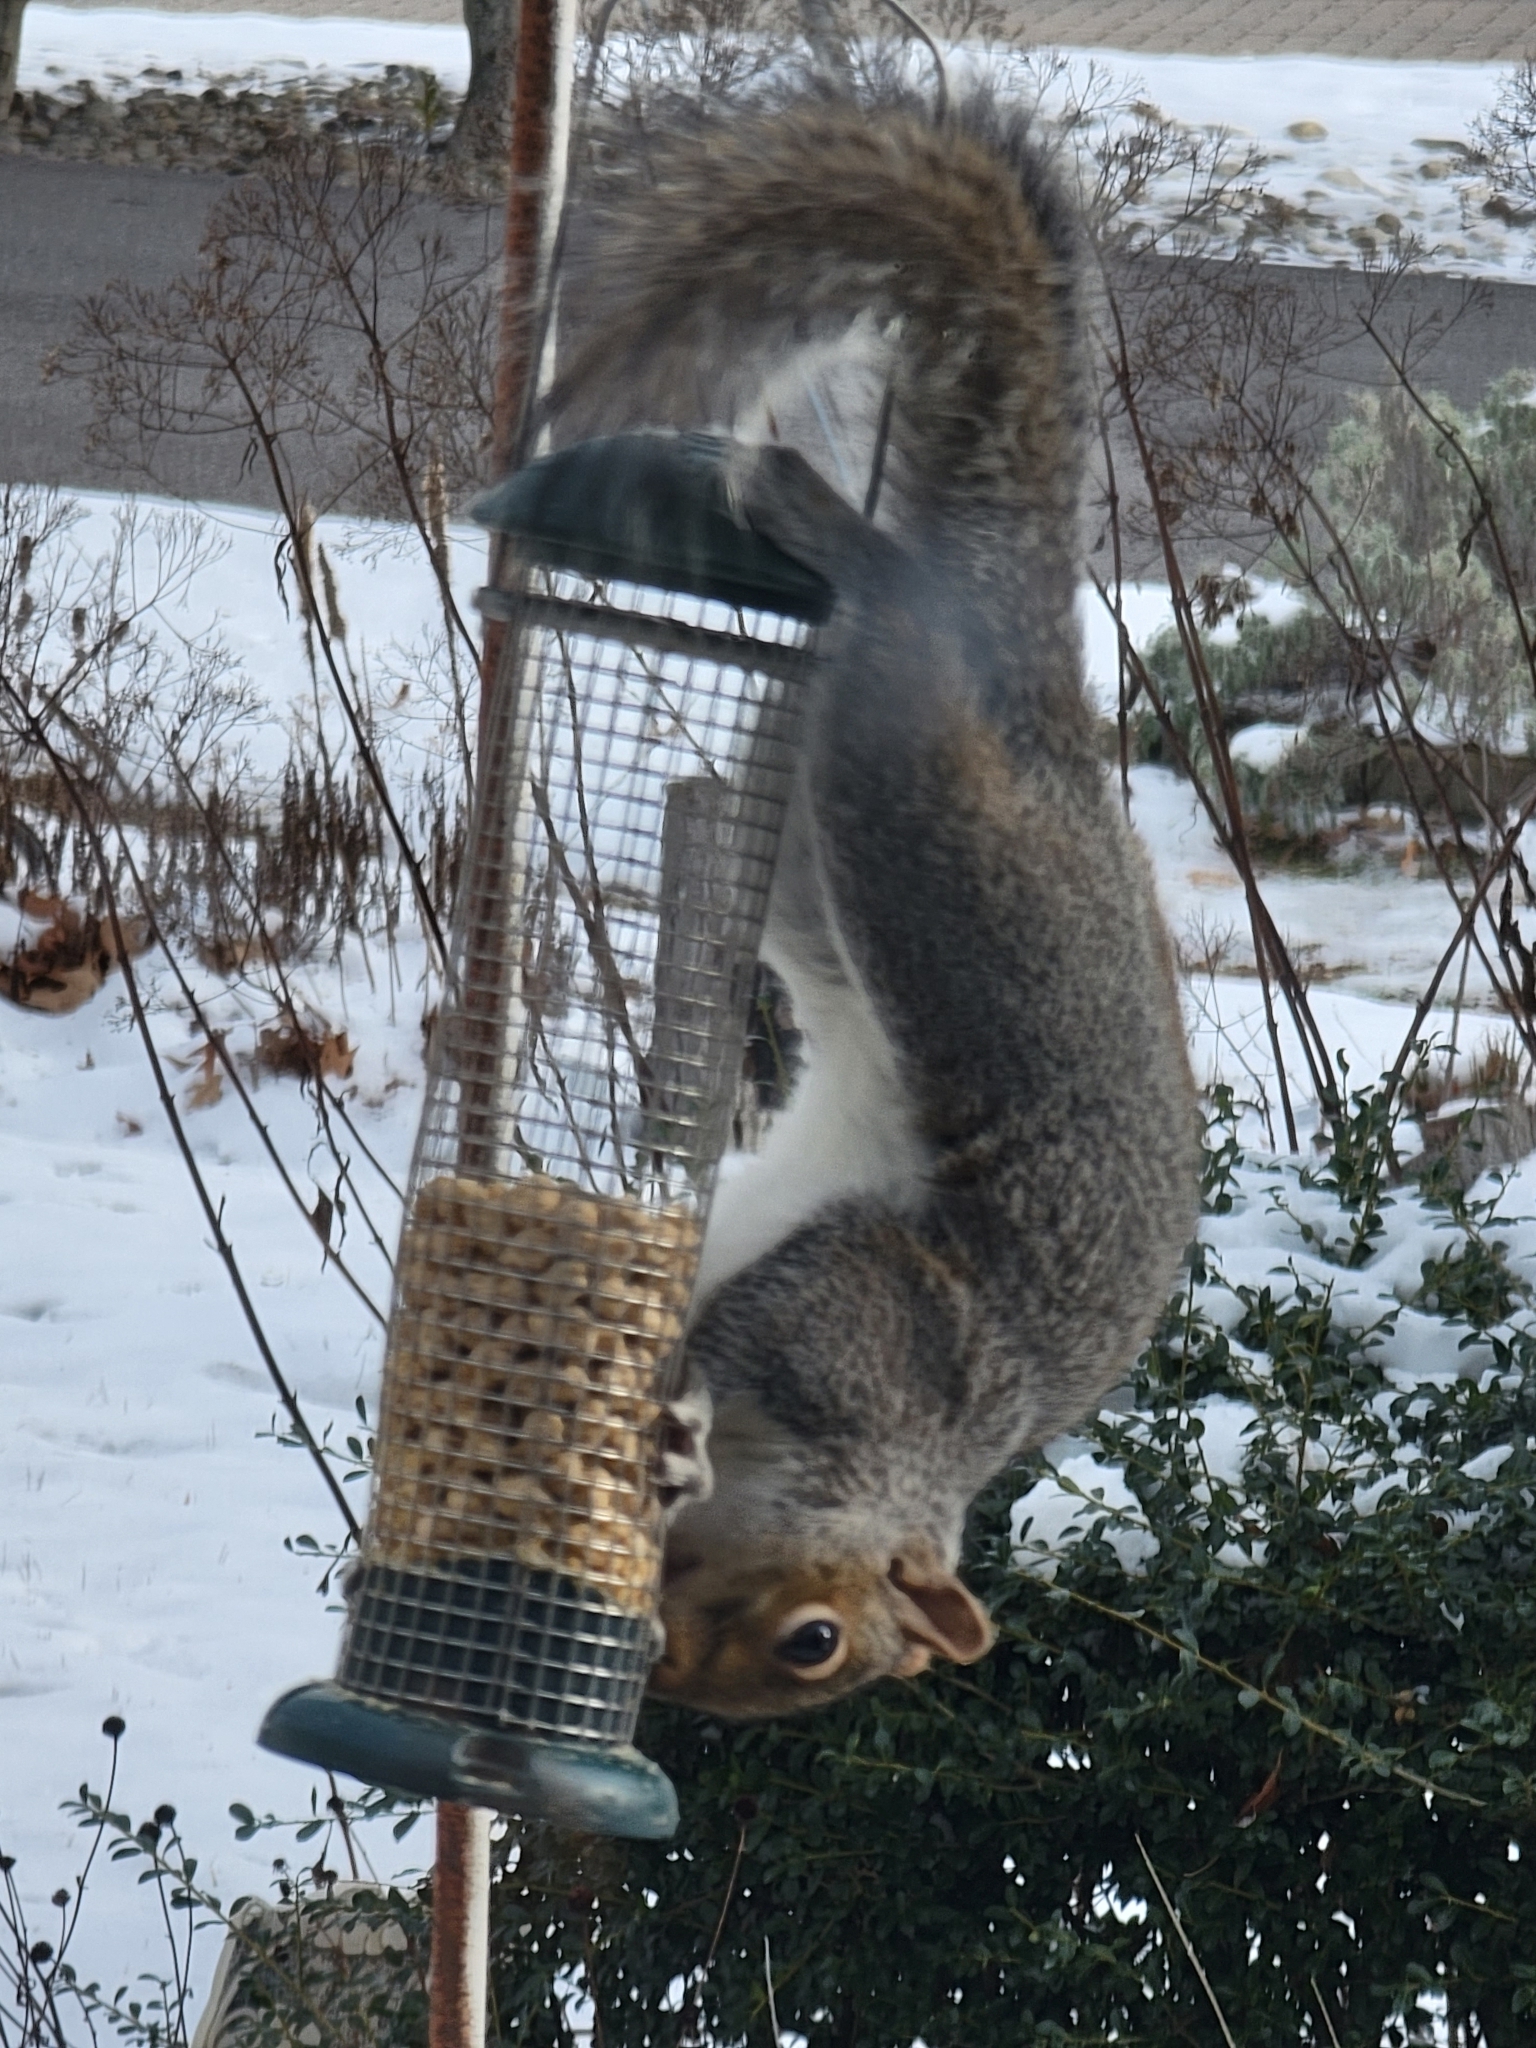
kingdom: Animalia
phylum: Chordata
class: Mammalia
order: Rodentia
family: Sciuridae
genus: Sciurus
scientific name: Sciurus carolinensis
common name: Eastern gray squirrel
